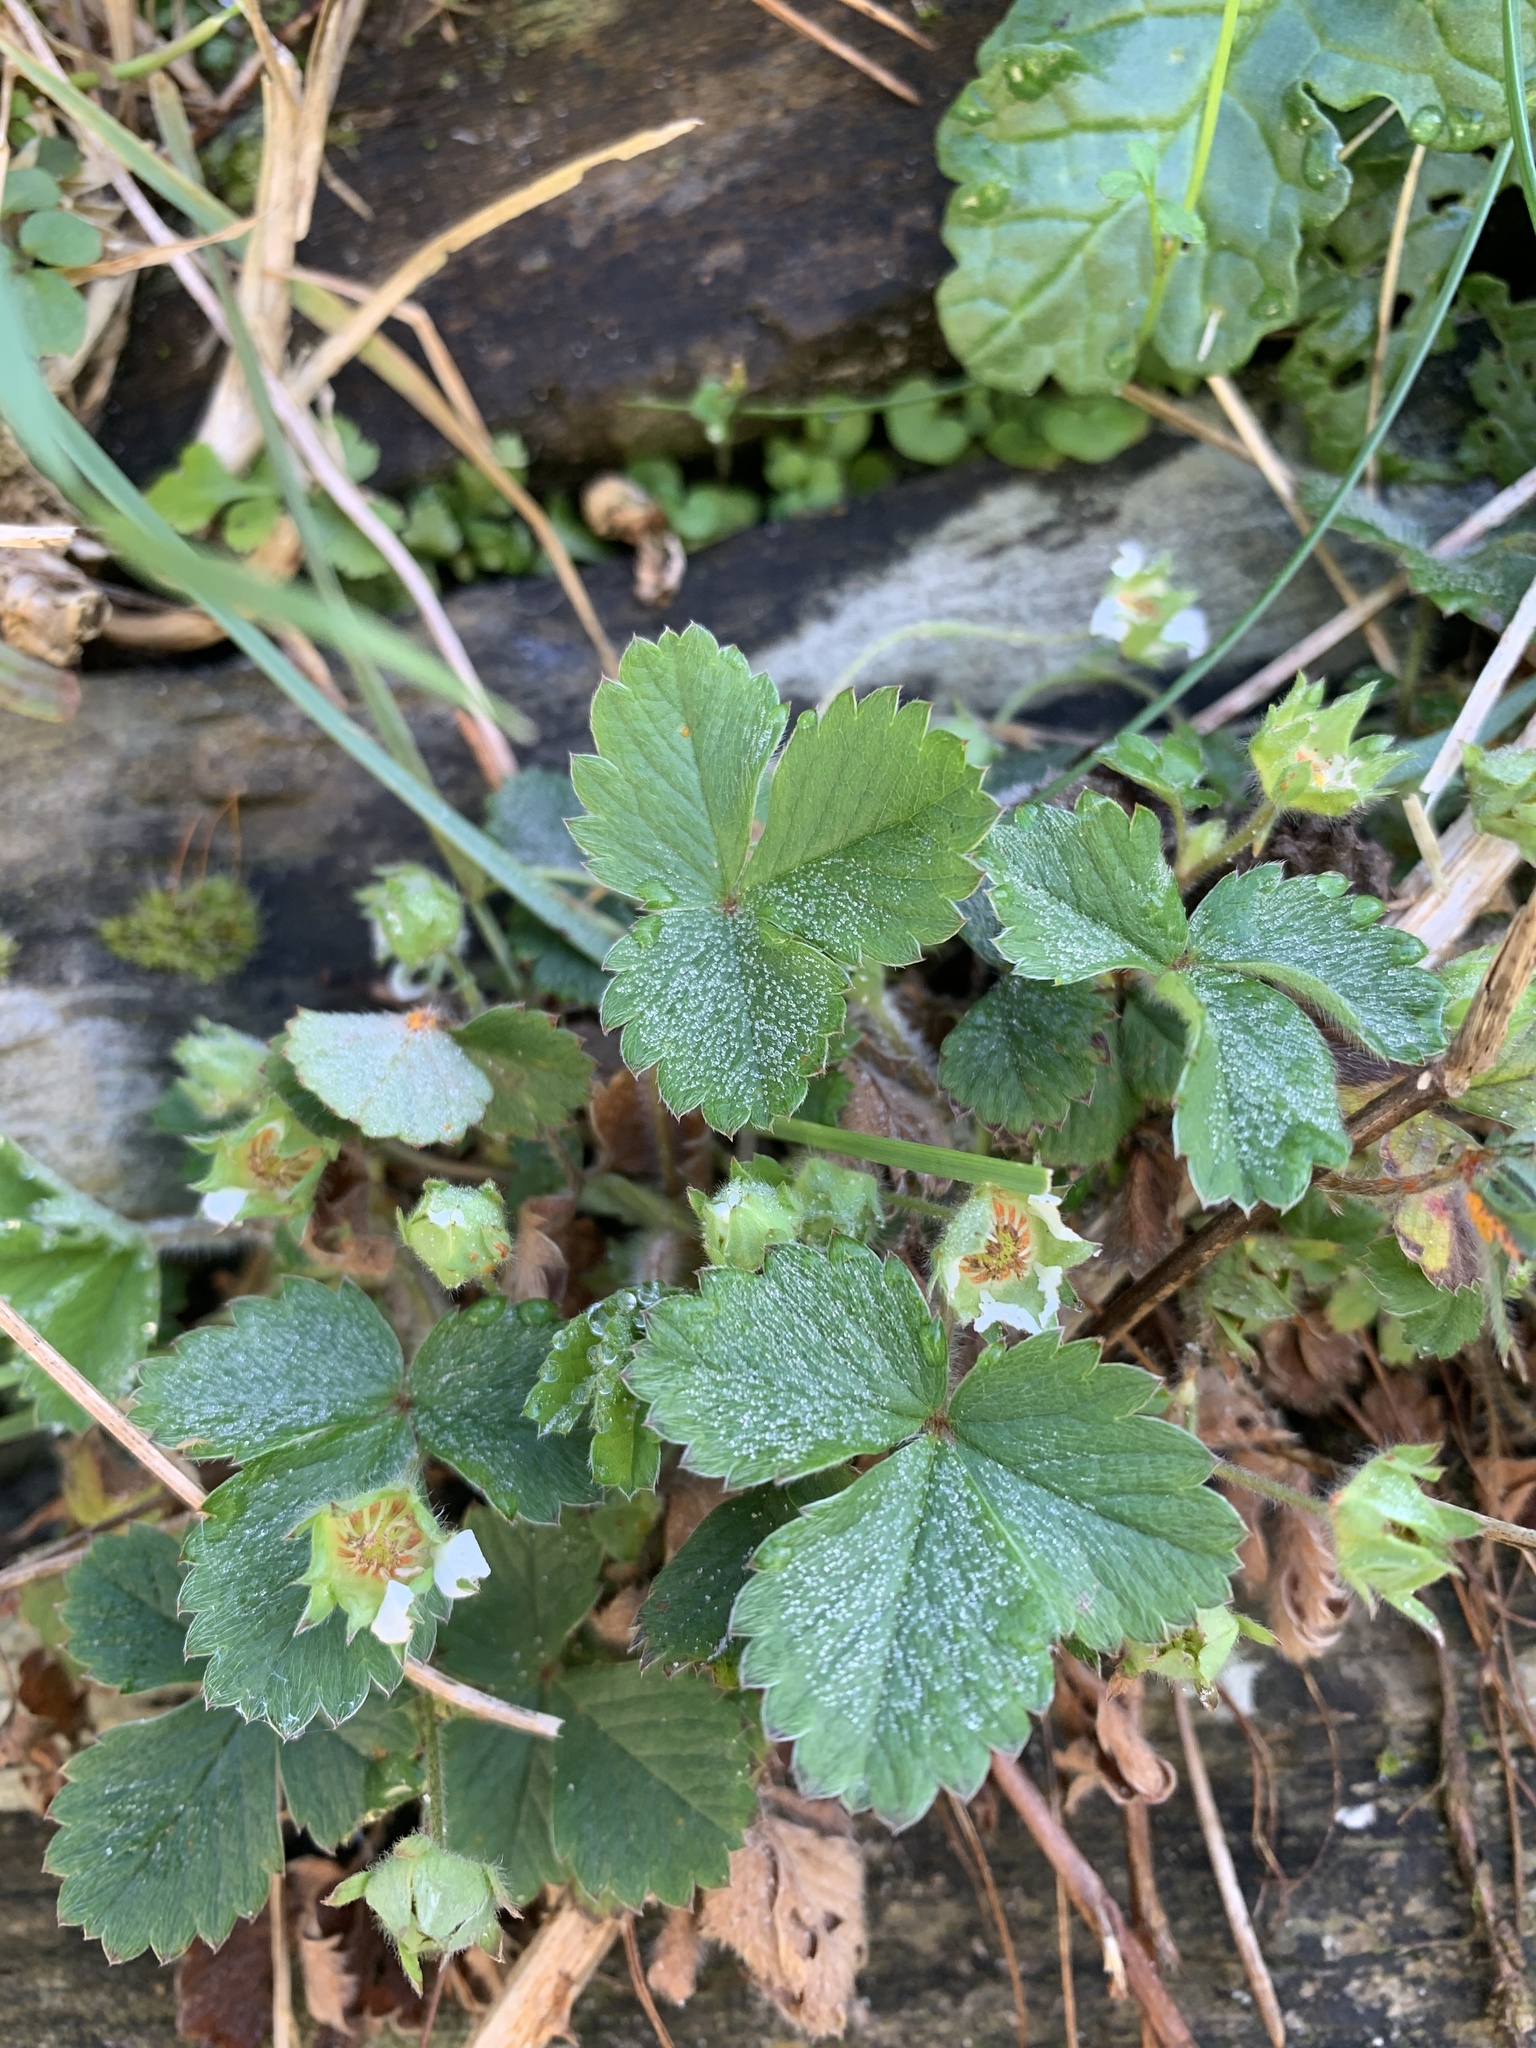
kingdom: Plantae
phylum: Tracheophyta
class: Magnoliopsida
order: Rosales
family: Rosaceae
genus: Potentilla
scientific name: Potentilla sterilis
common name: Barren strawberry
